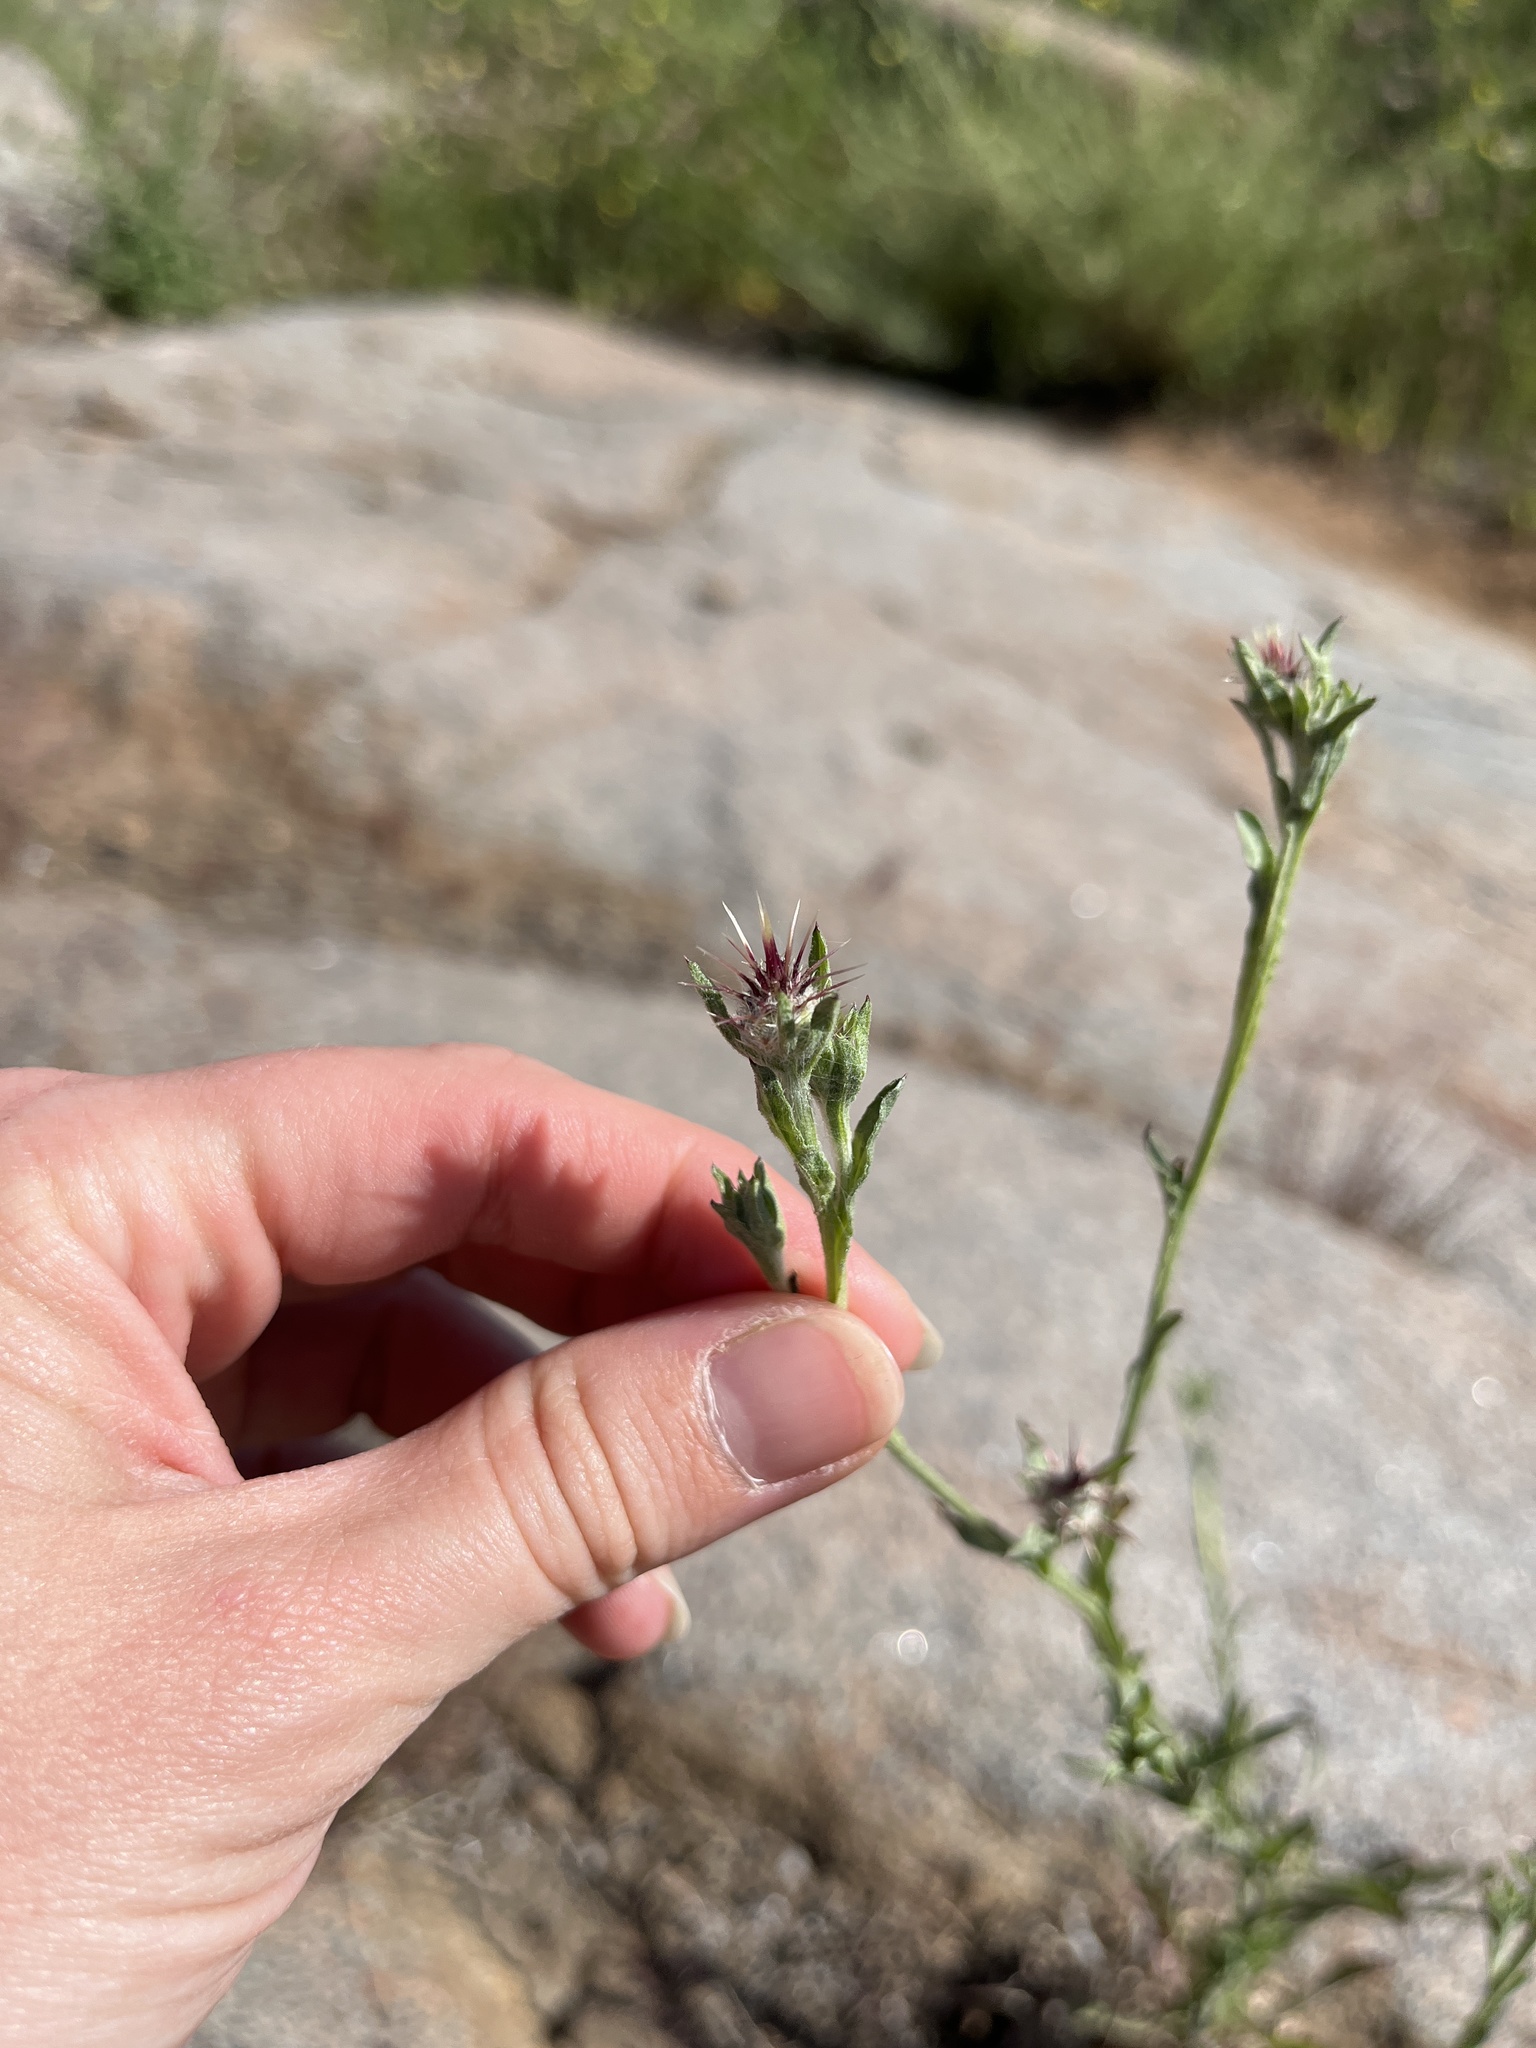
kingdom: Plantae
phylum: Tracheophyta
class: Magnoliopsida
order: Asterales
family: Asteraceae
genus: Centaurea
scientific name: Centaurea melitensis
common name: Maltese star-thistle
